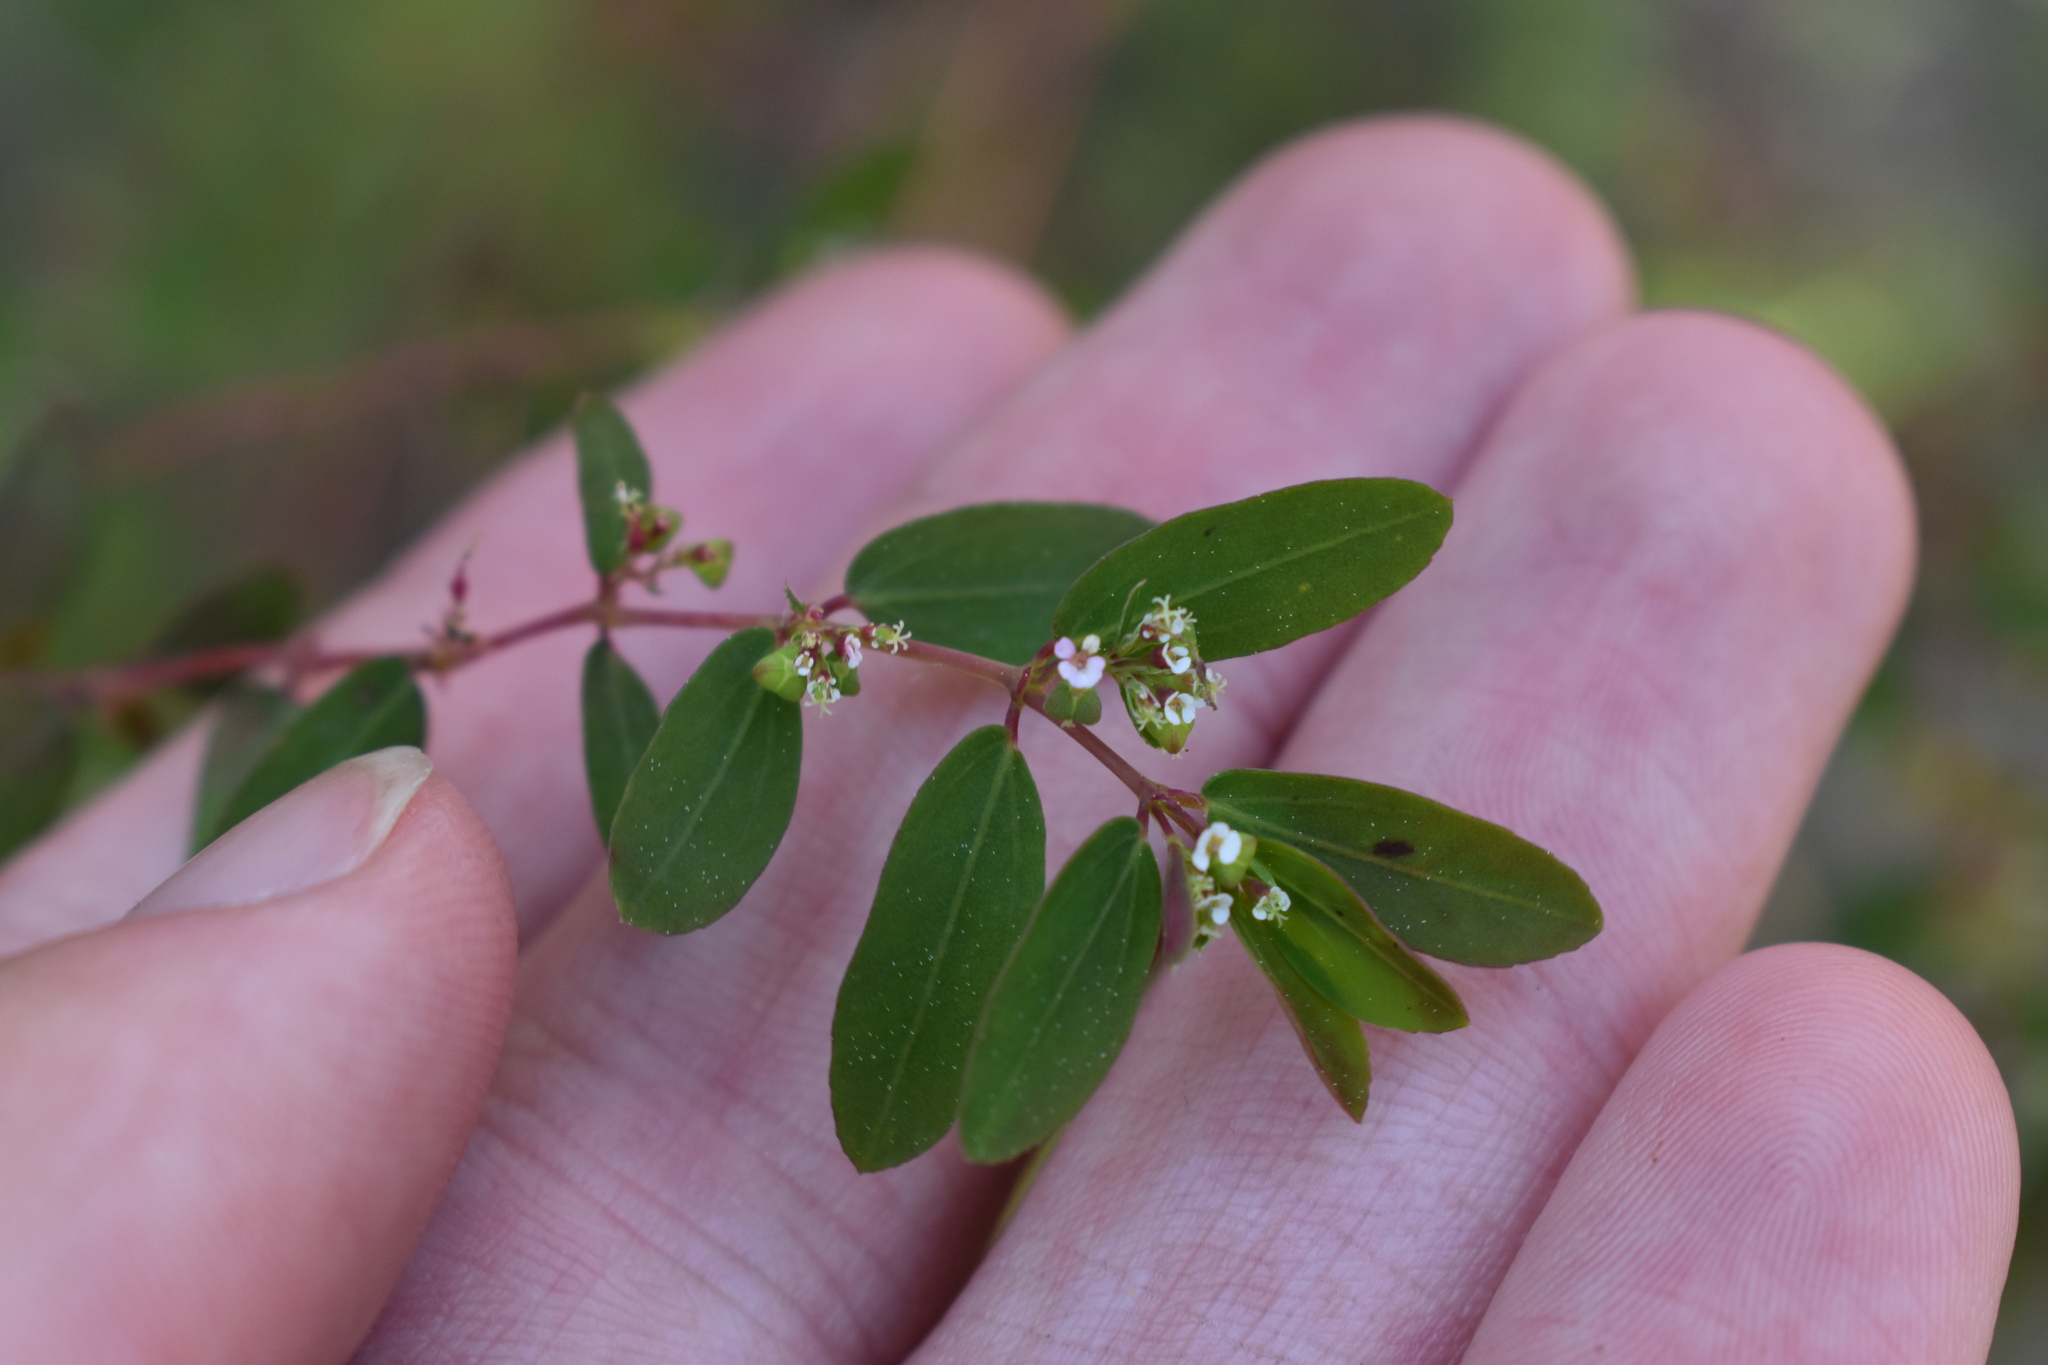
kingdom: Plantae
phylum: Tracheophyta
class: Magnoliopsida
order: Malpighiales
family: Euphorbiaceae
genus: Euphorbia
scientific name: Euphorbia hypericifolia
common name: Graceful sandmat
